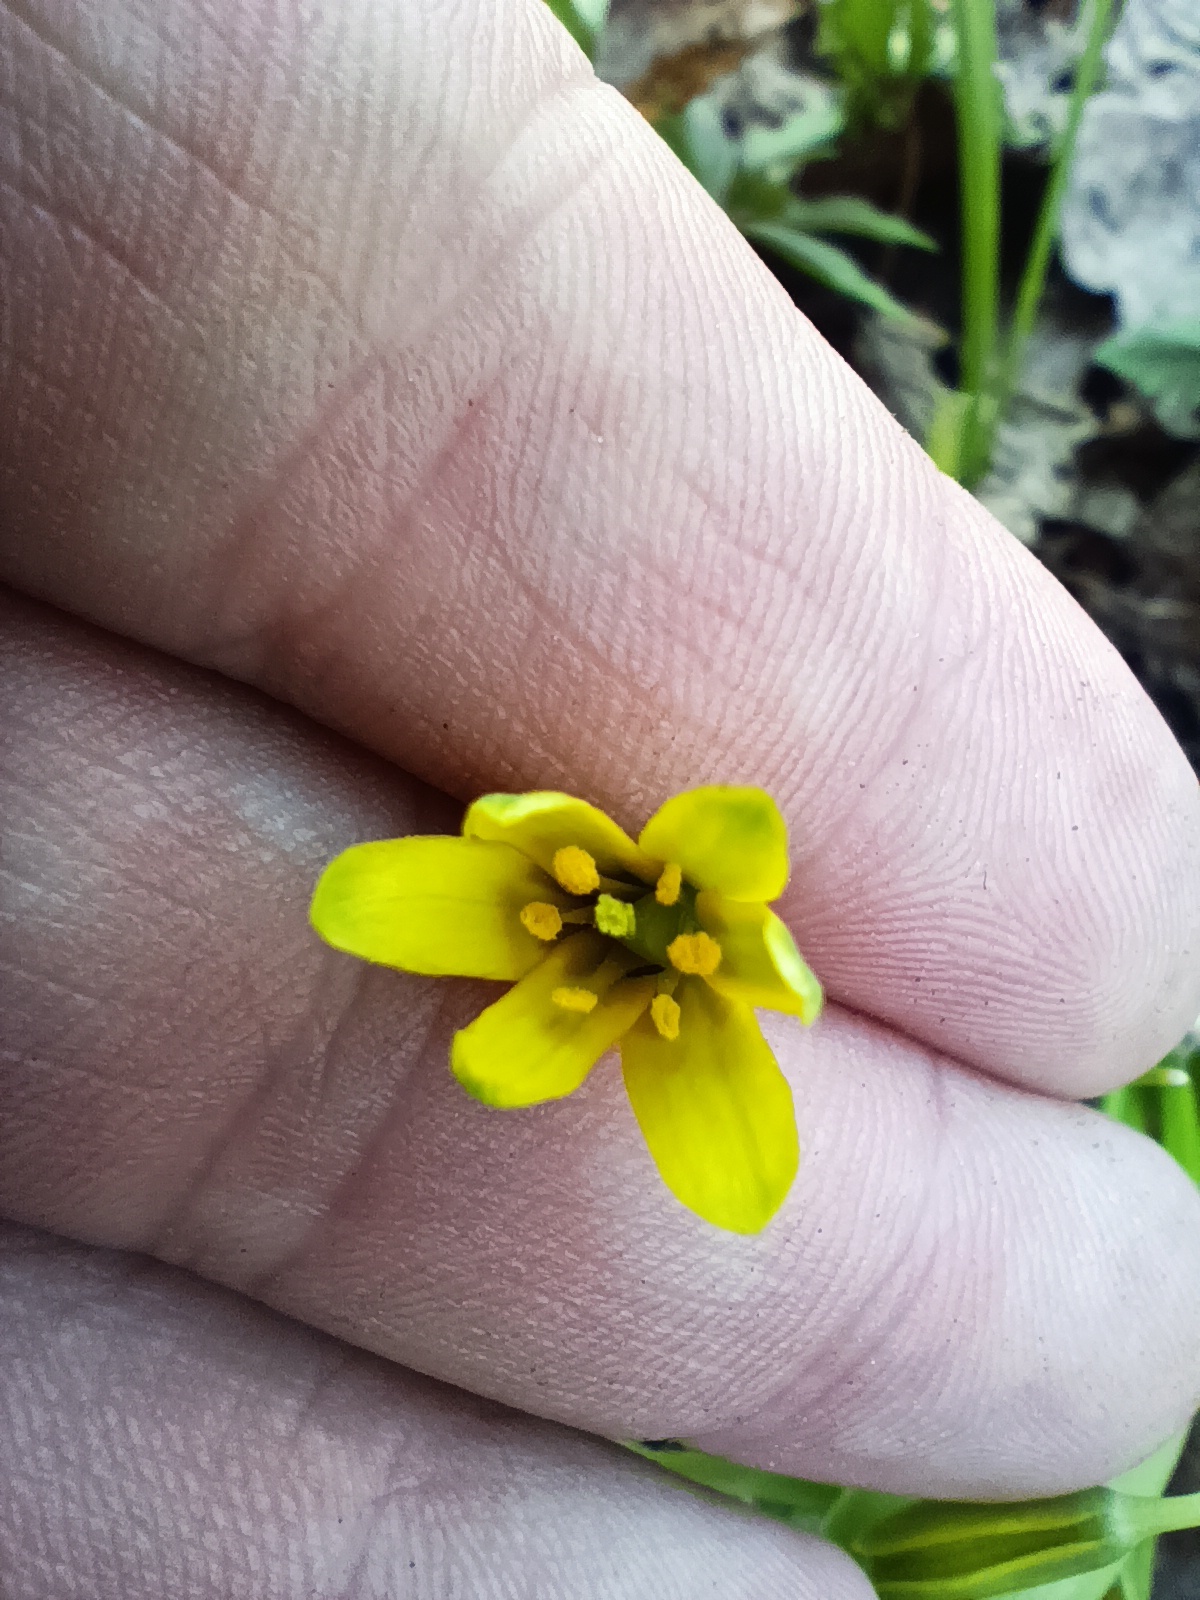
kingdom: Plantae
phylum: Tracheophyta
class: Liliopsida
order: Liliales
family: Liliaceae
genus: Gagea
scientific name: Gagea lutea
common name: Yellow star-of-bethlehem
